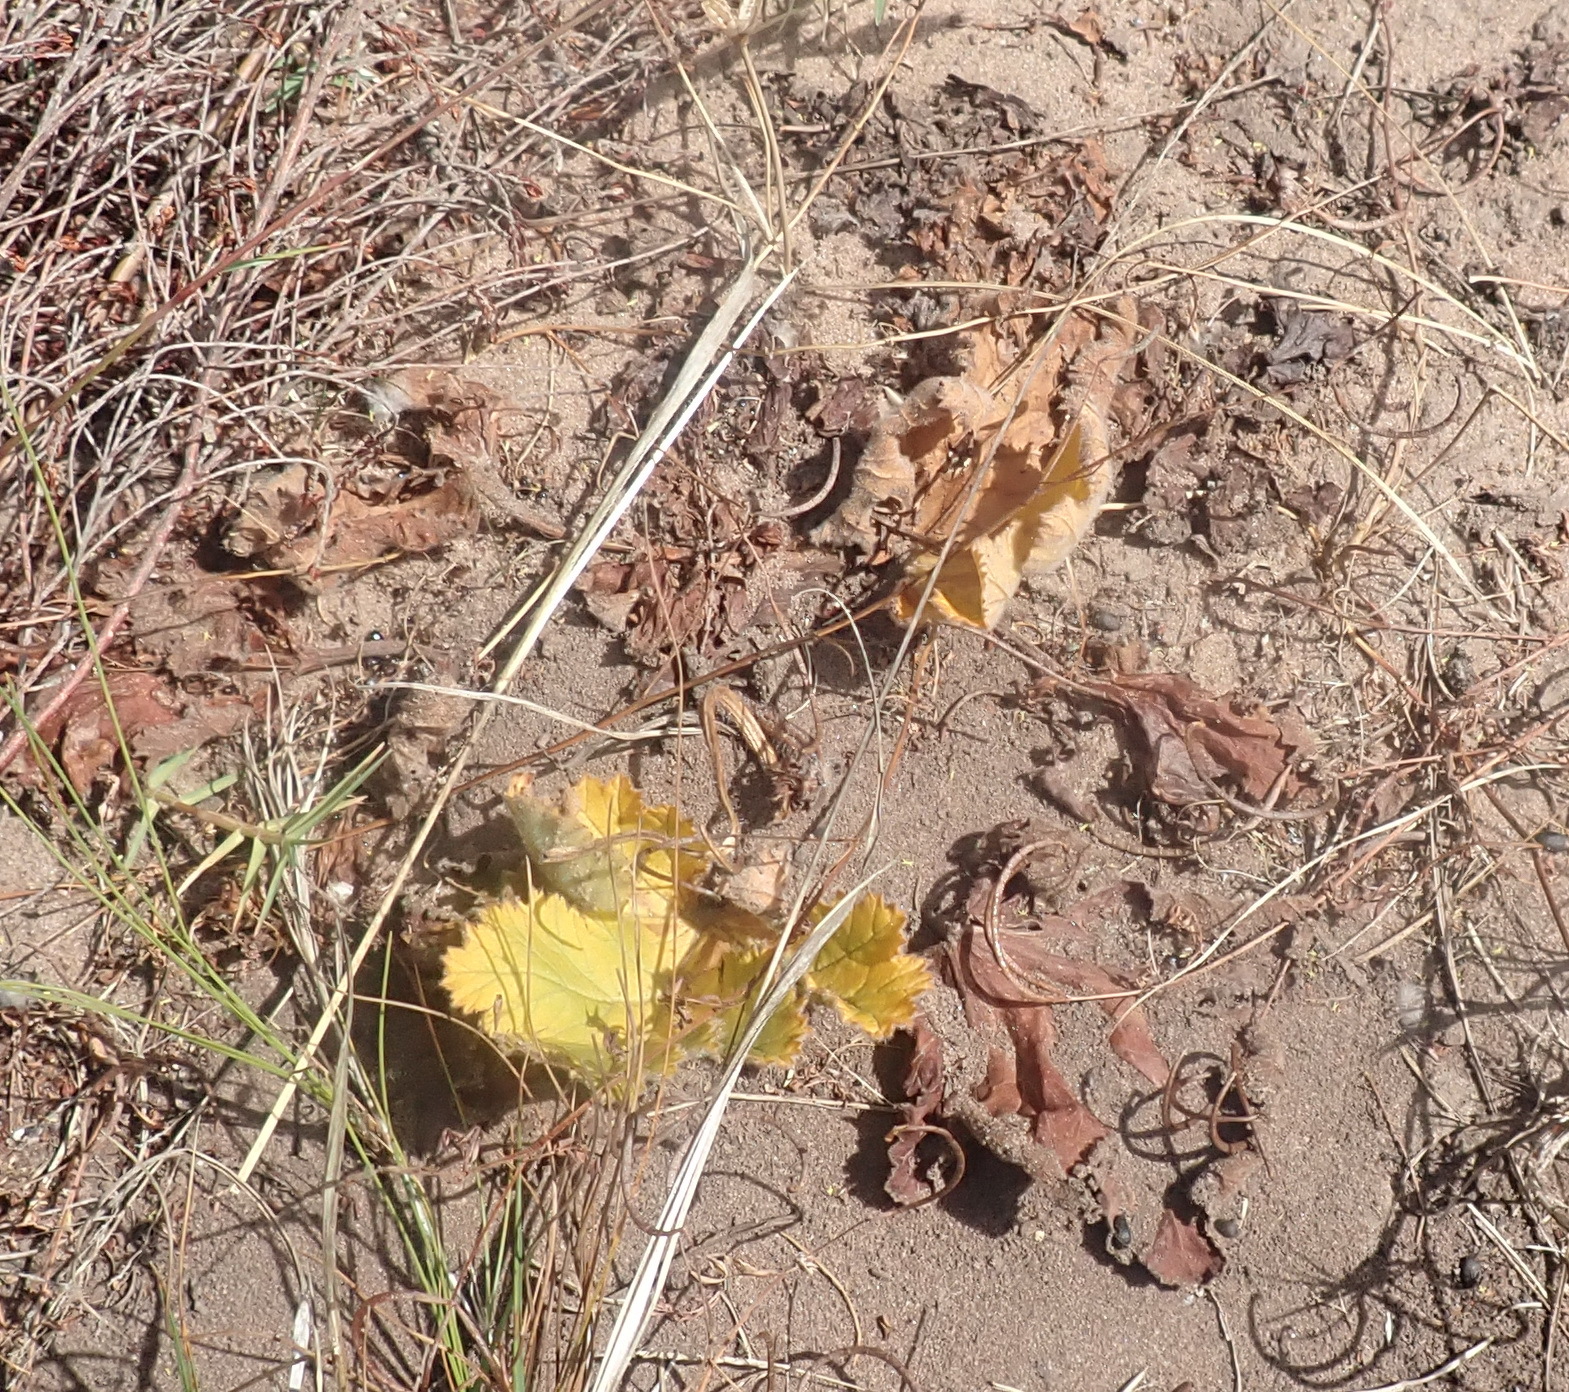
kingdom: Plantae
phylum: Tracheophyta
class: Magnoliopsida
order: Geraniales
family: Geraniaceae
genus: Pelargonium
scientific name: Pelargonium lobatum
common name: Vine-leaf pelargonium
